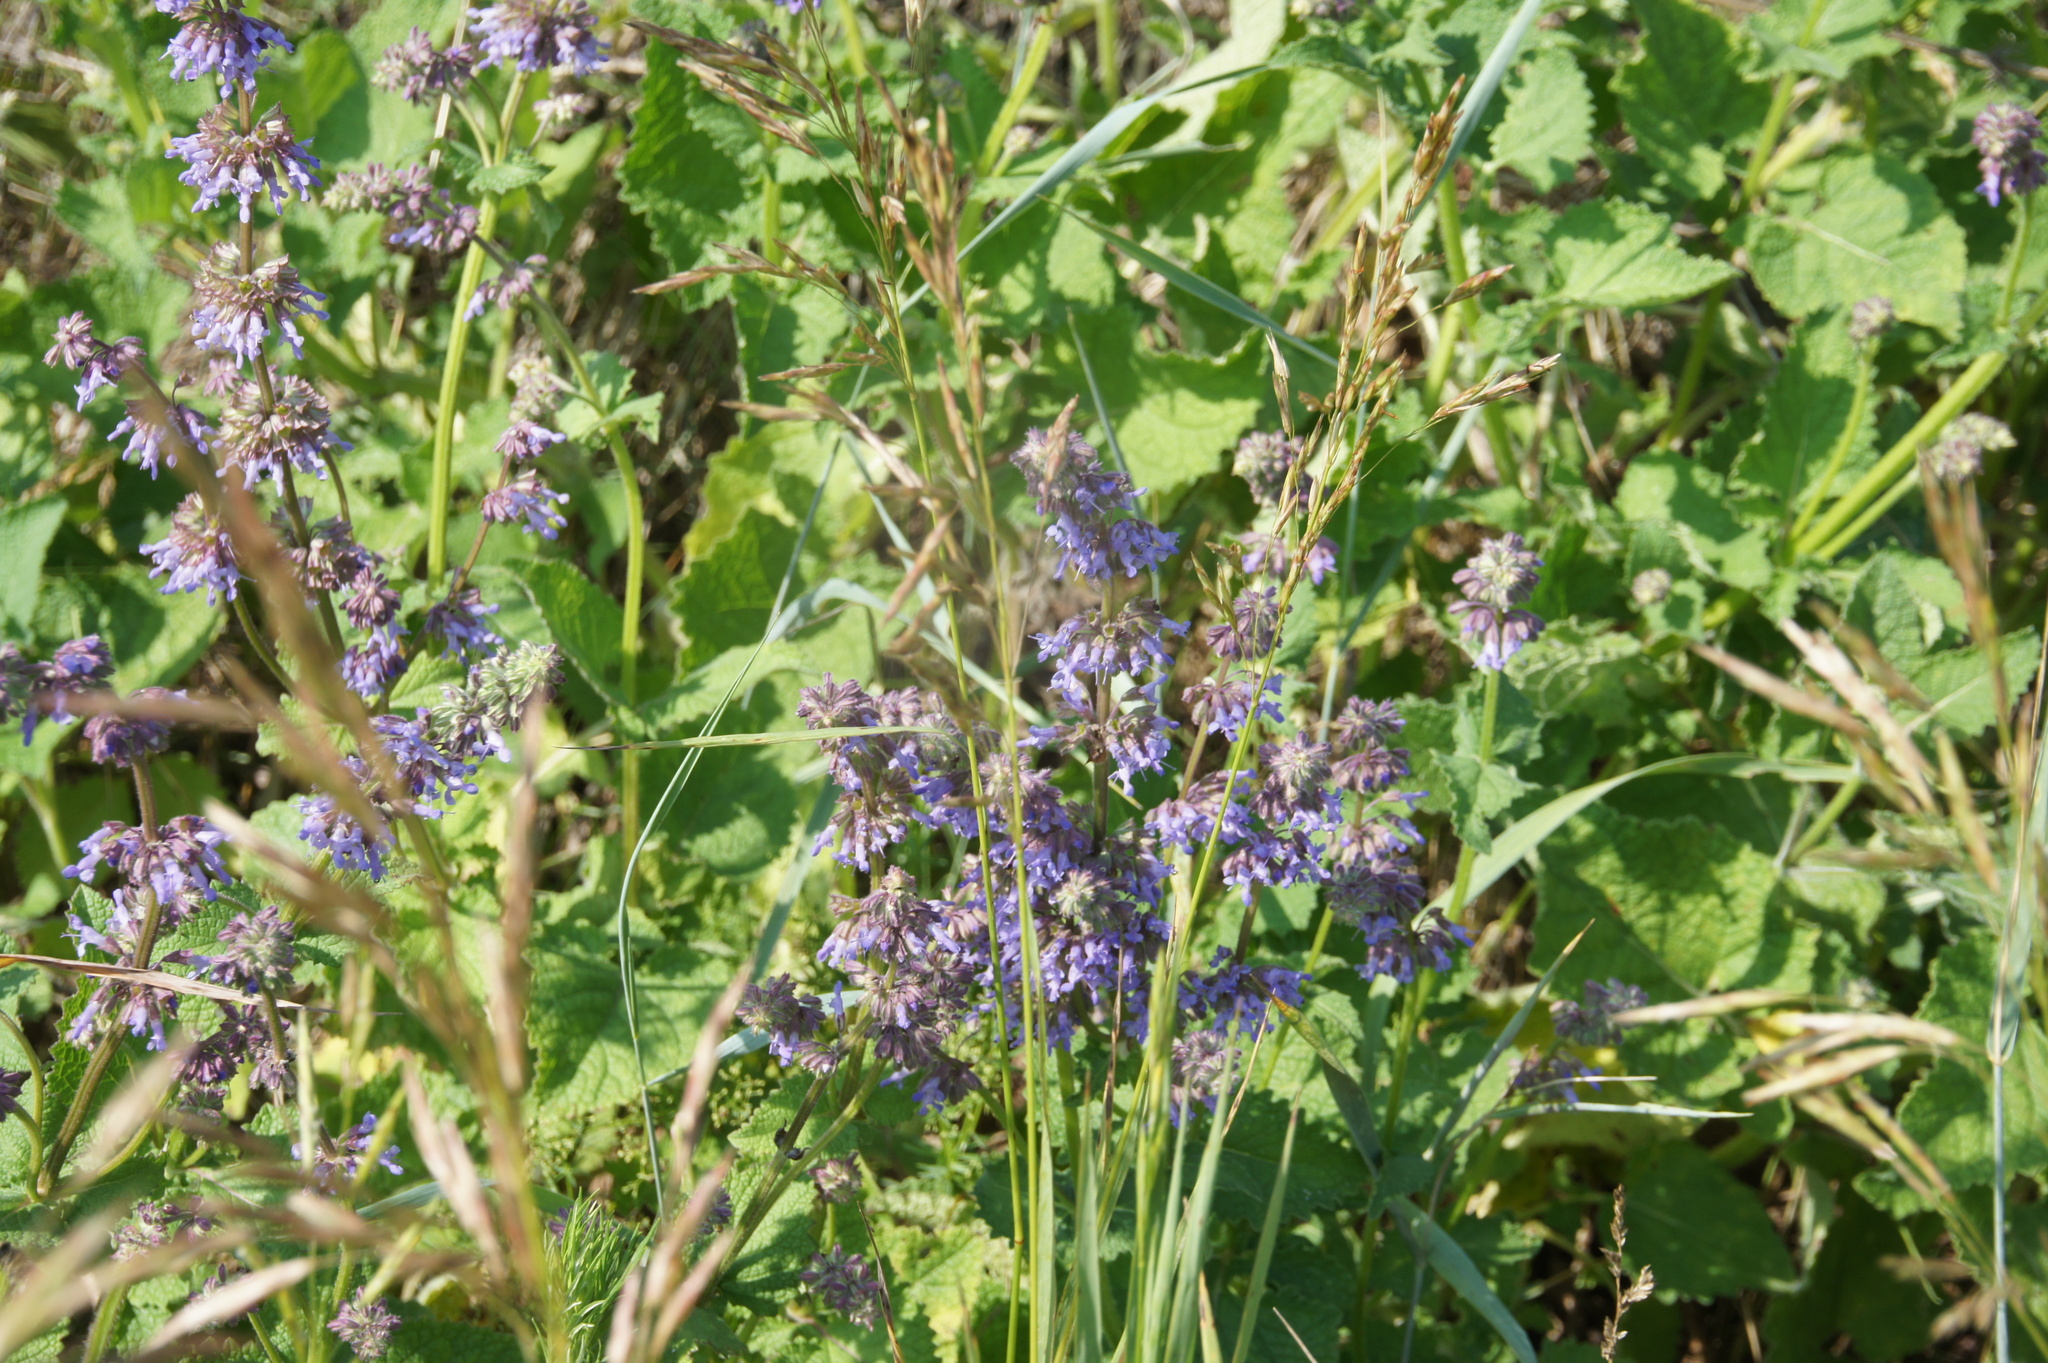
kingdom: Plantae
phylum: Tracheophyta
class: Magnoliopsida
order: Lamiales
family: Lamiaceae
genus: Salvia
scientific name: Salvia verticillata
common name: Whorled clary
